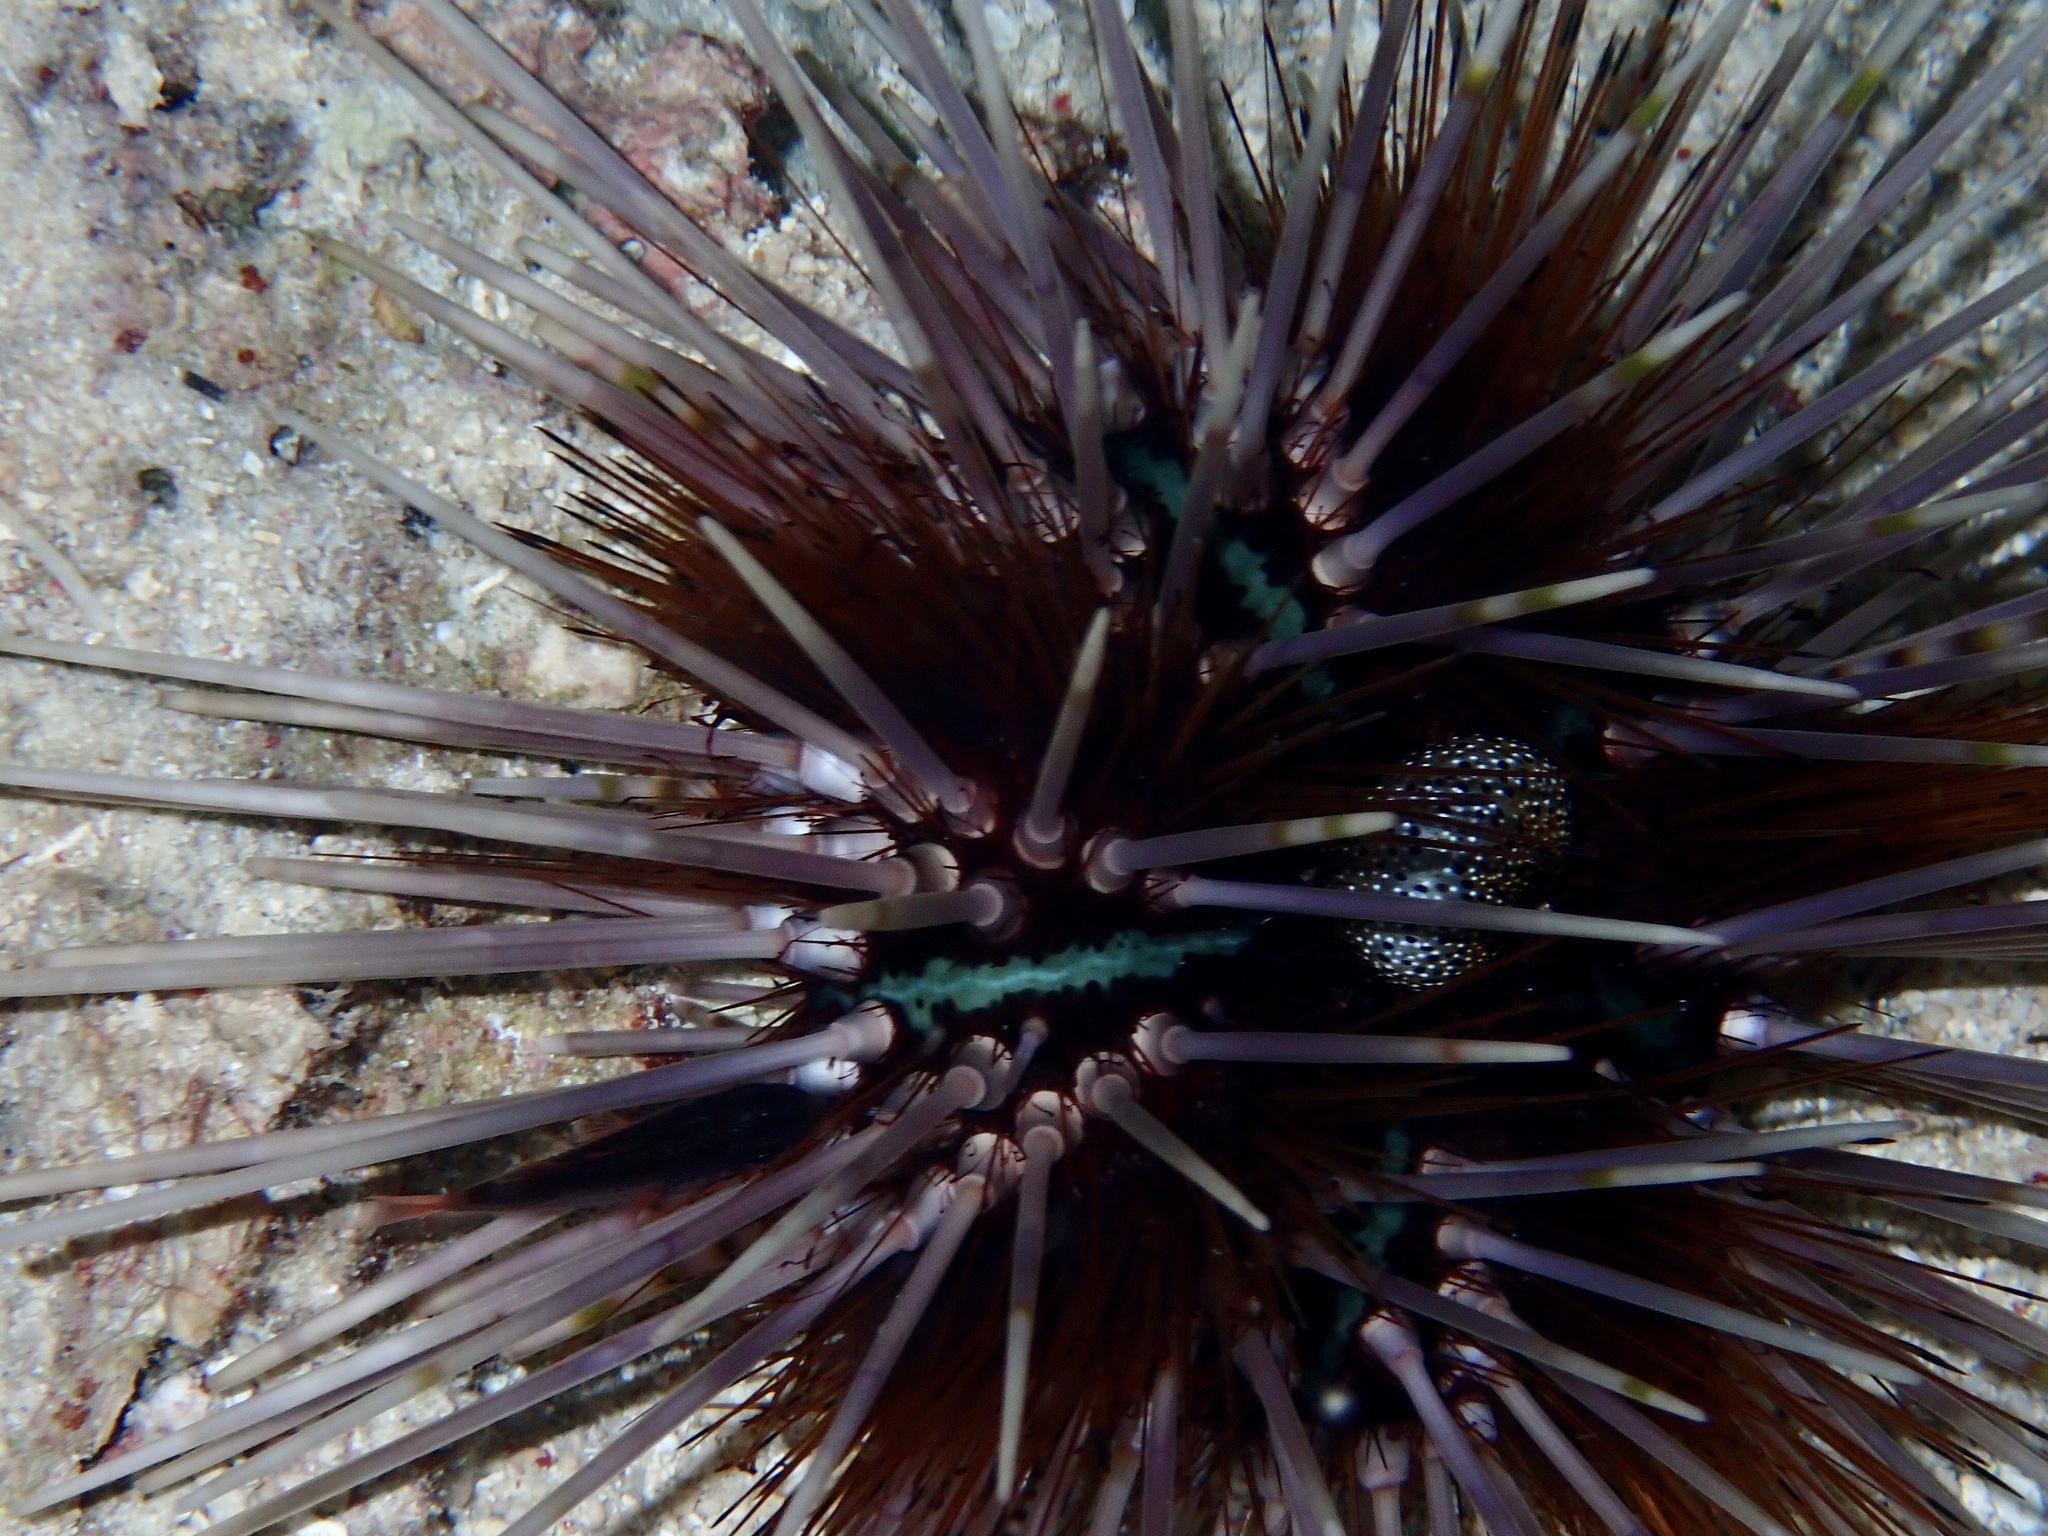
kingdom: Animalia
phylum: Echinodermata
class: Echinoidea
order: Diadematoida
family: Diadematidae
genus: Echinothrix
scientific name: Echinothrix calamaris
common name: Banded sea urchin
